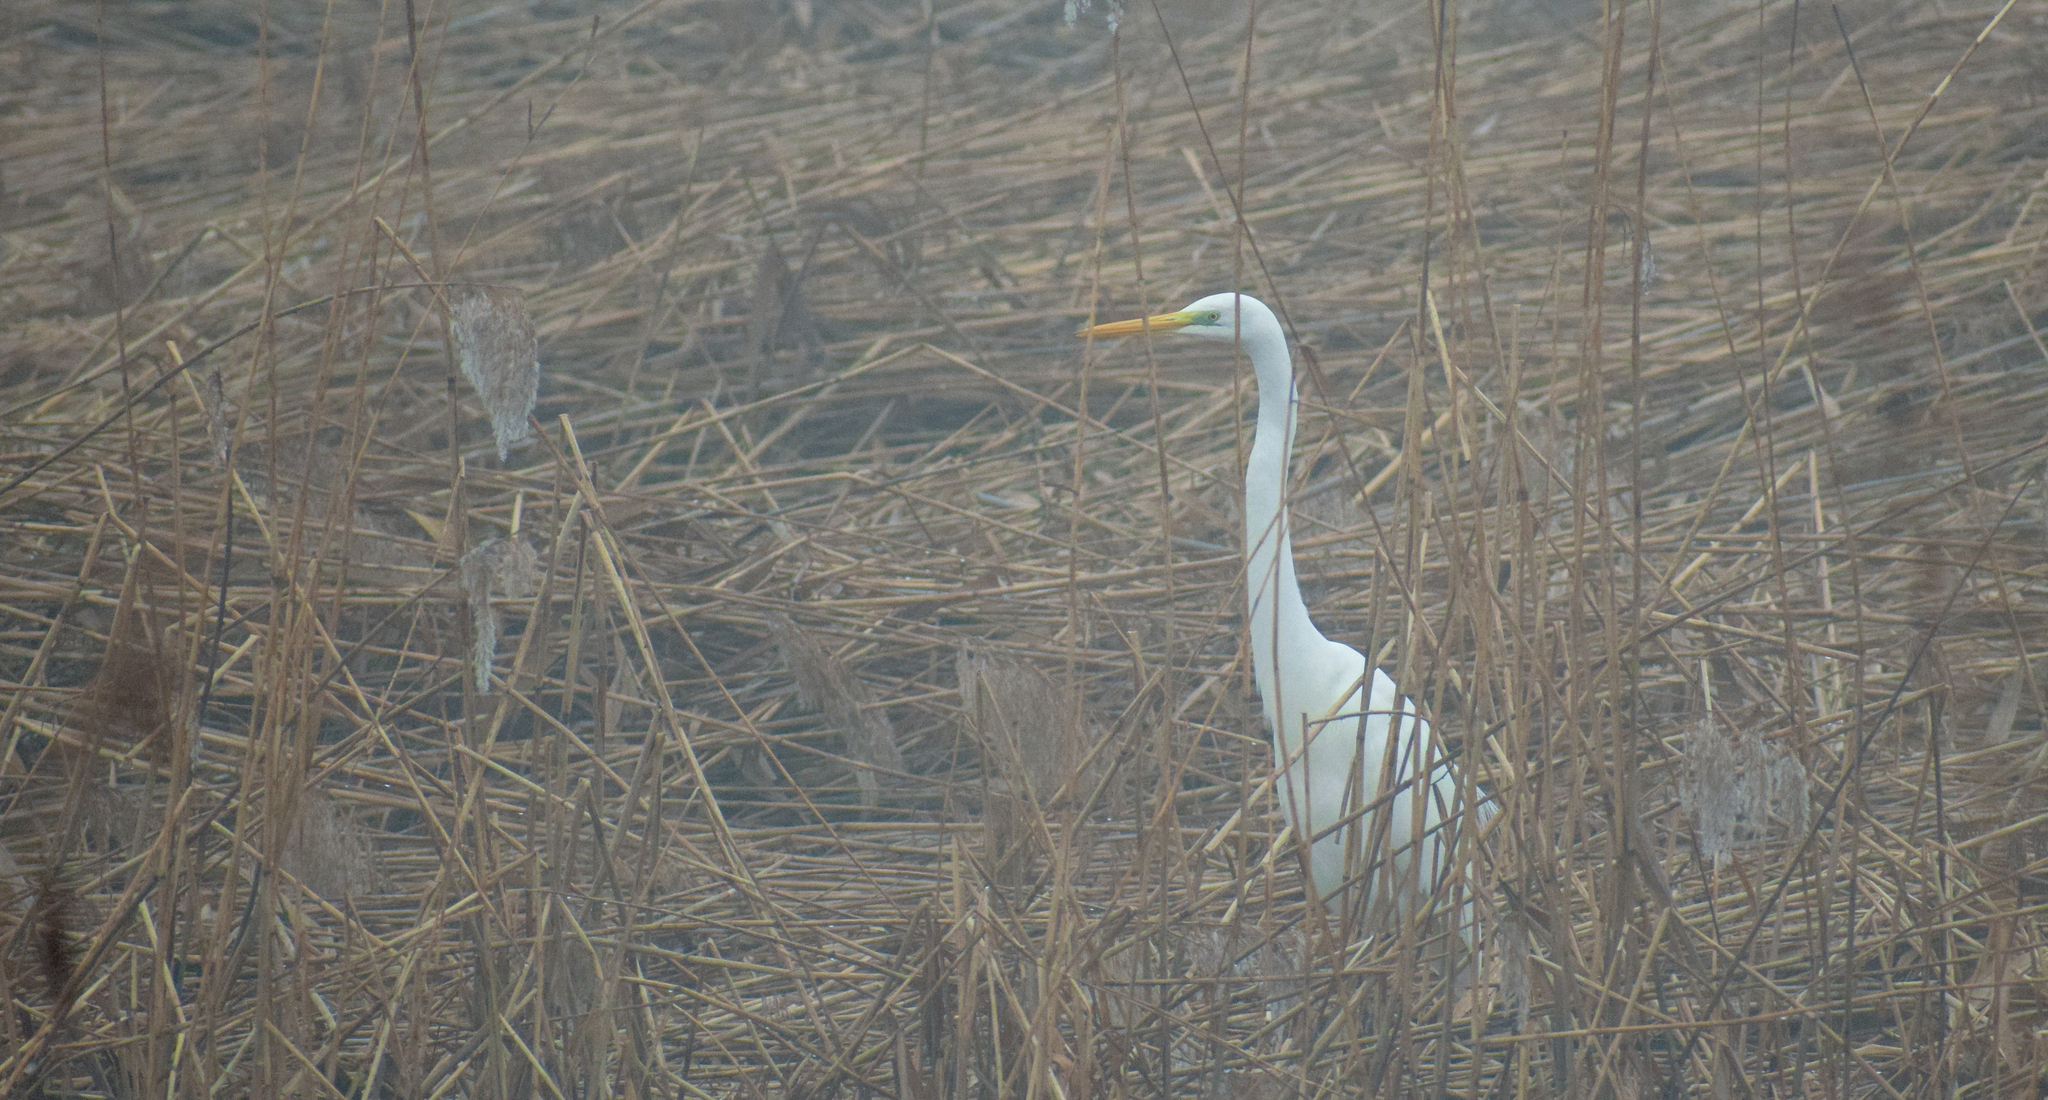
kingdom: Animalia
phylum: Chordata
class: Aves
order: Pelecaniformes
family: Ardeidae
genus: Ardea
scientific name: Ardea alba
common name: Great egret
